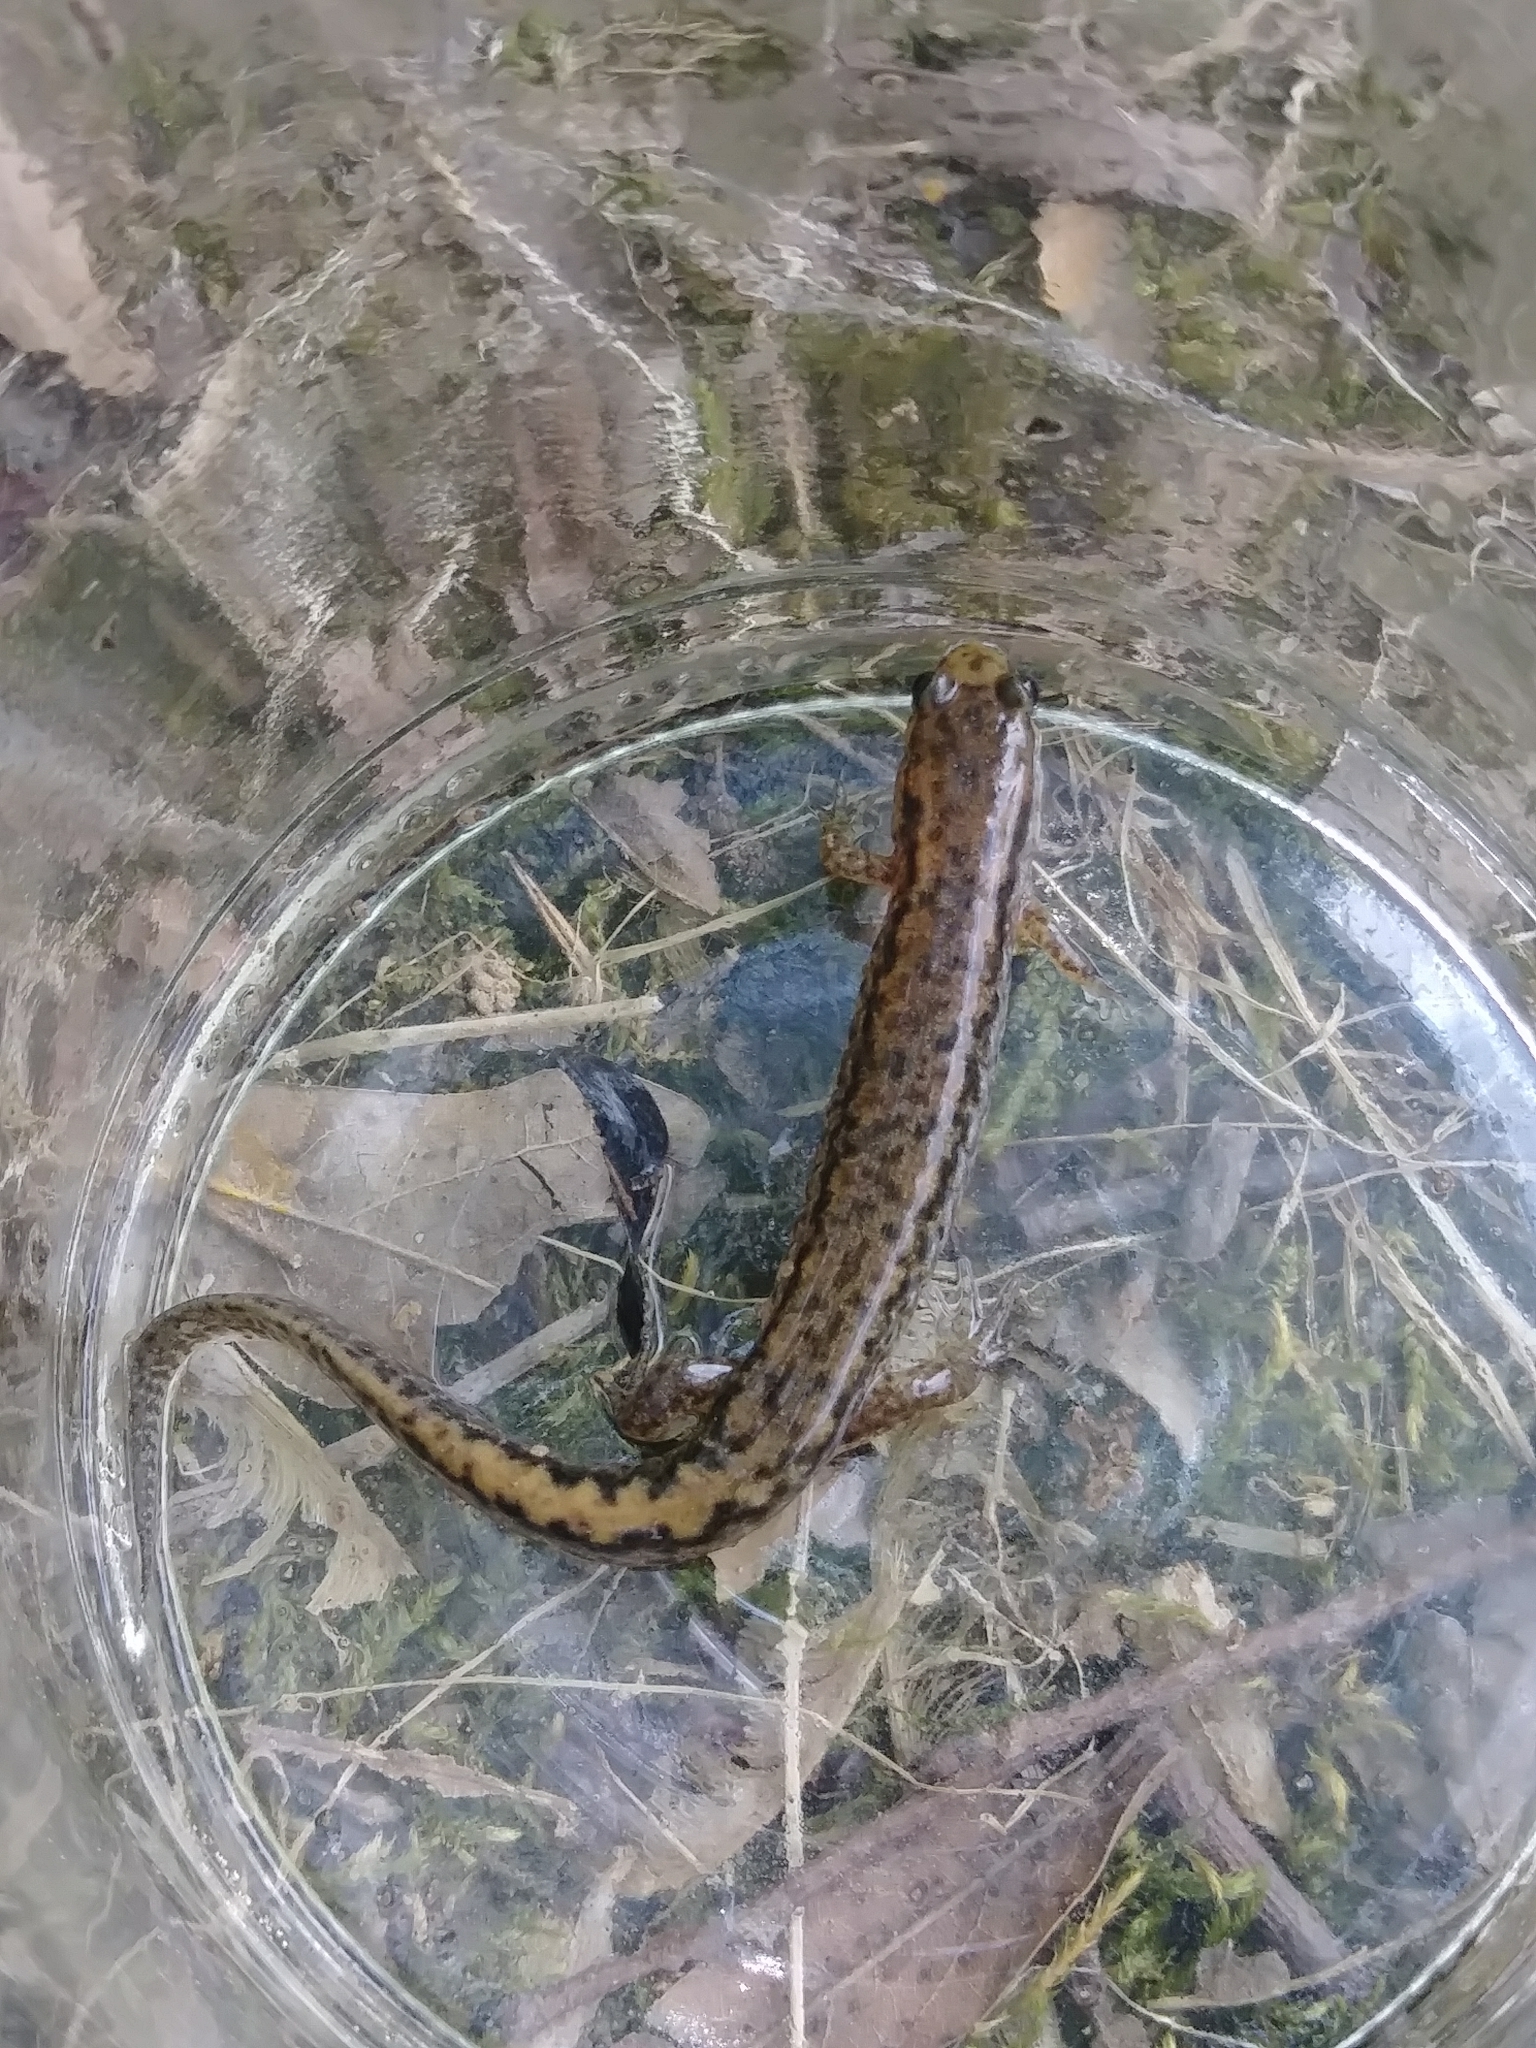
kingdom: Animalia
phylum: Chordata
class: Amphibia
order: Caudata
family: Plethodontidae
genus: Desmognathus
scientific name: Desmognathus
